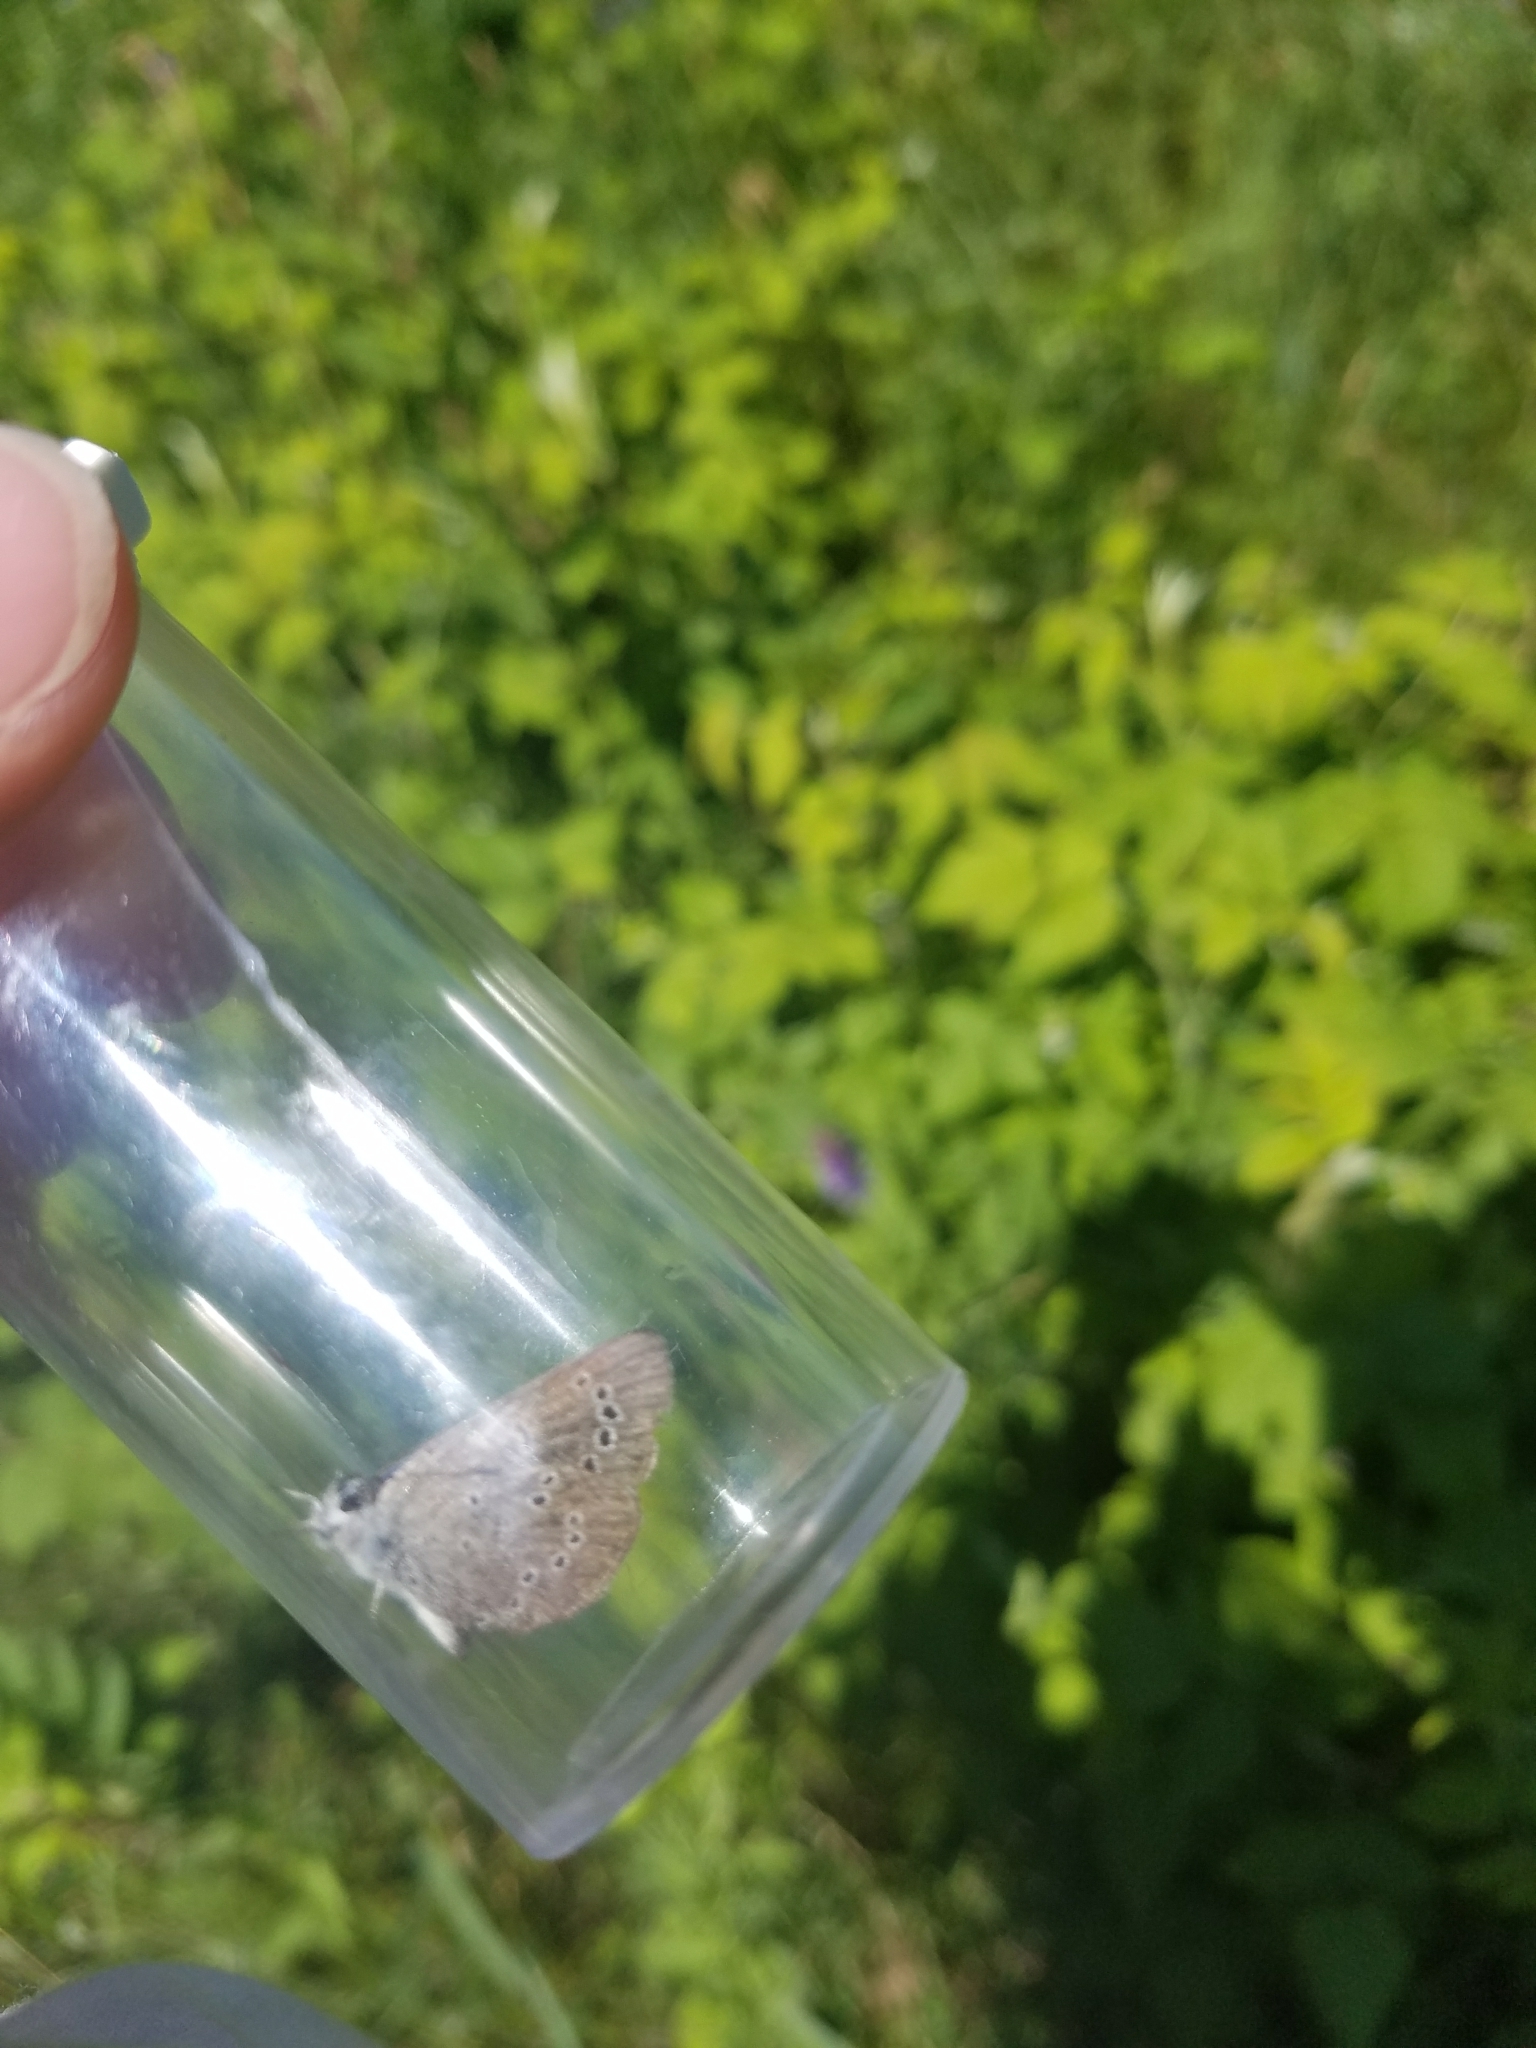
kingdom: Animalia
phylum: Arthropoda
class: Insecta
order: Lepidoptera
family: Lycaenidae
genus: Glaucopsyche
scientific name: Glaucopsyche lygdamus
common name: Silvery blue
